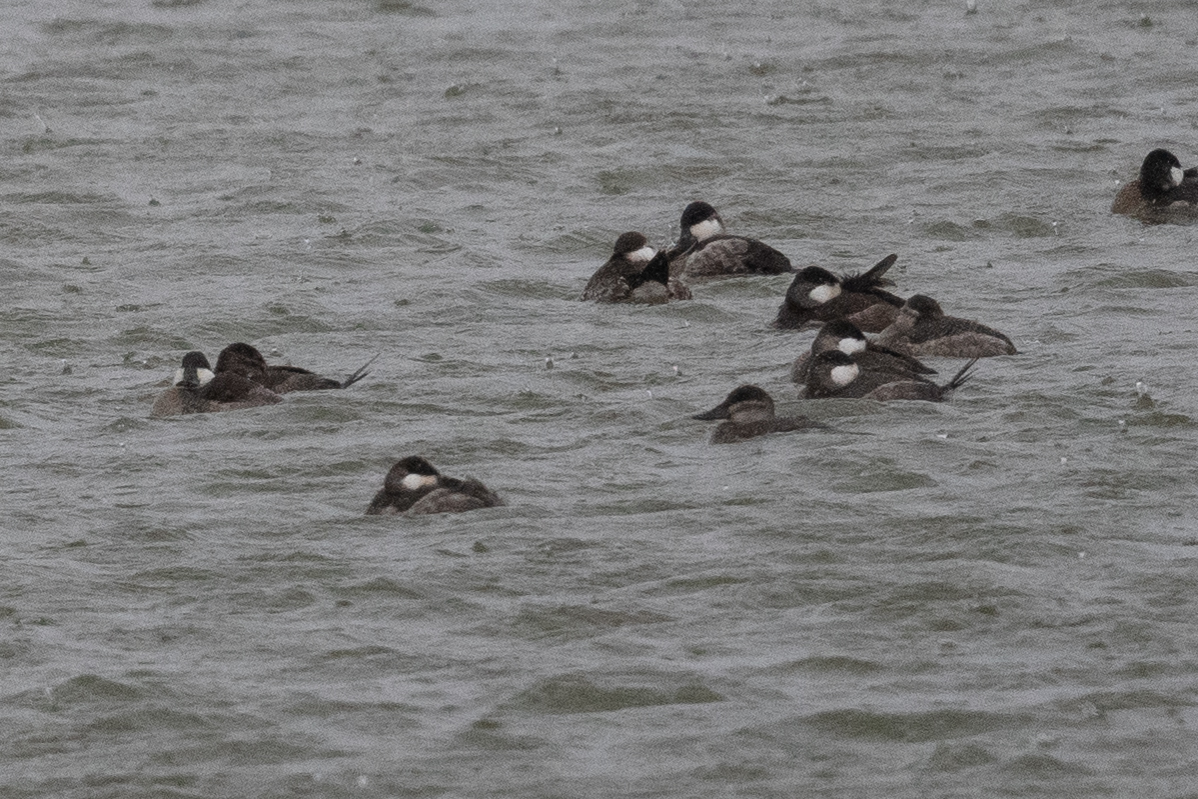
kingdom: Animalia
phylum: Chordata
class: Aves
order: Anseriformes
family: Anatidae
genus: Oxyura
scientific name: Oxyura jamaicensis
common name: Ruddy duck
